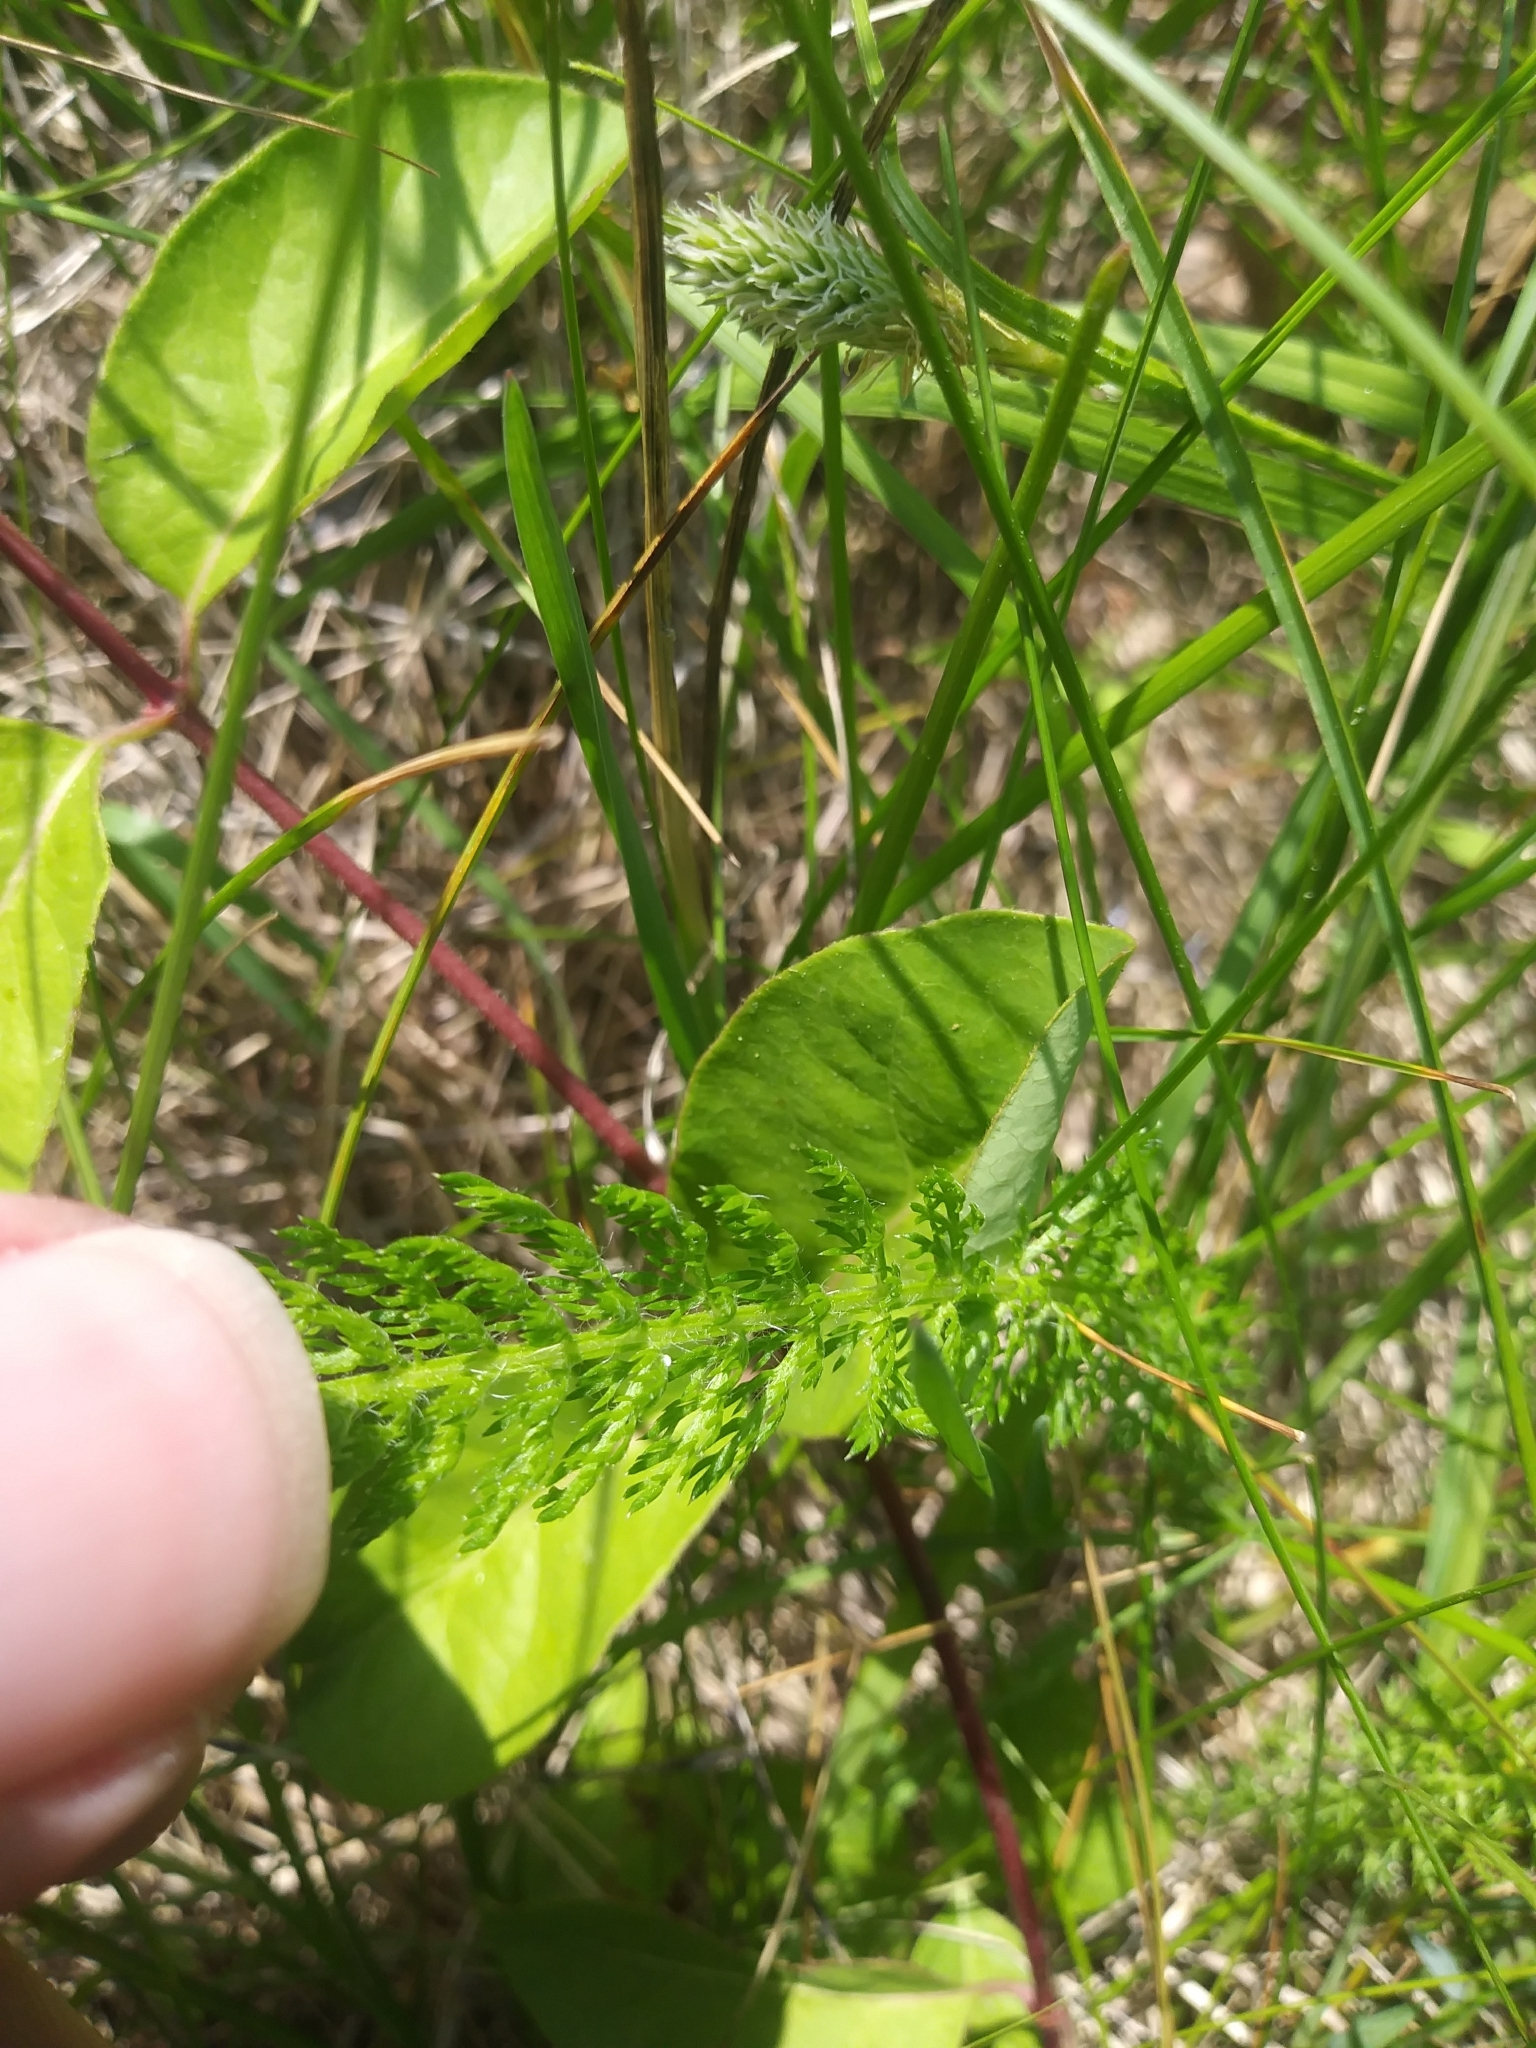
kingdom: Plantae
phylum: Tracheophyta
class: Magnoliopsida
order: Asterales
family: Asteraceae
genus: Achillea
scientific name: Achillea millefolium
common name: Yarrow
